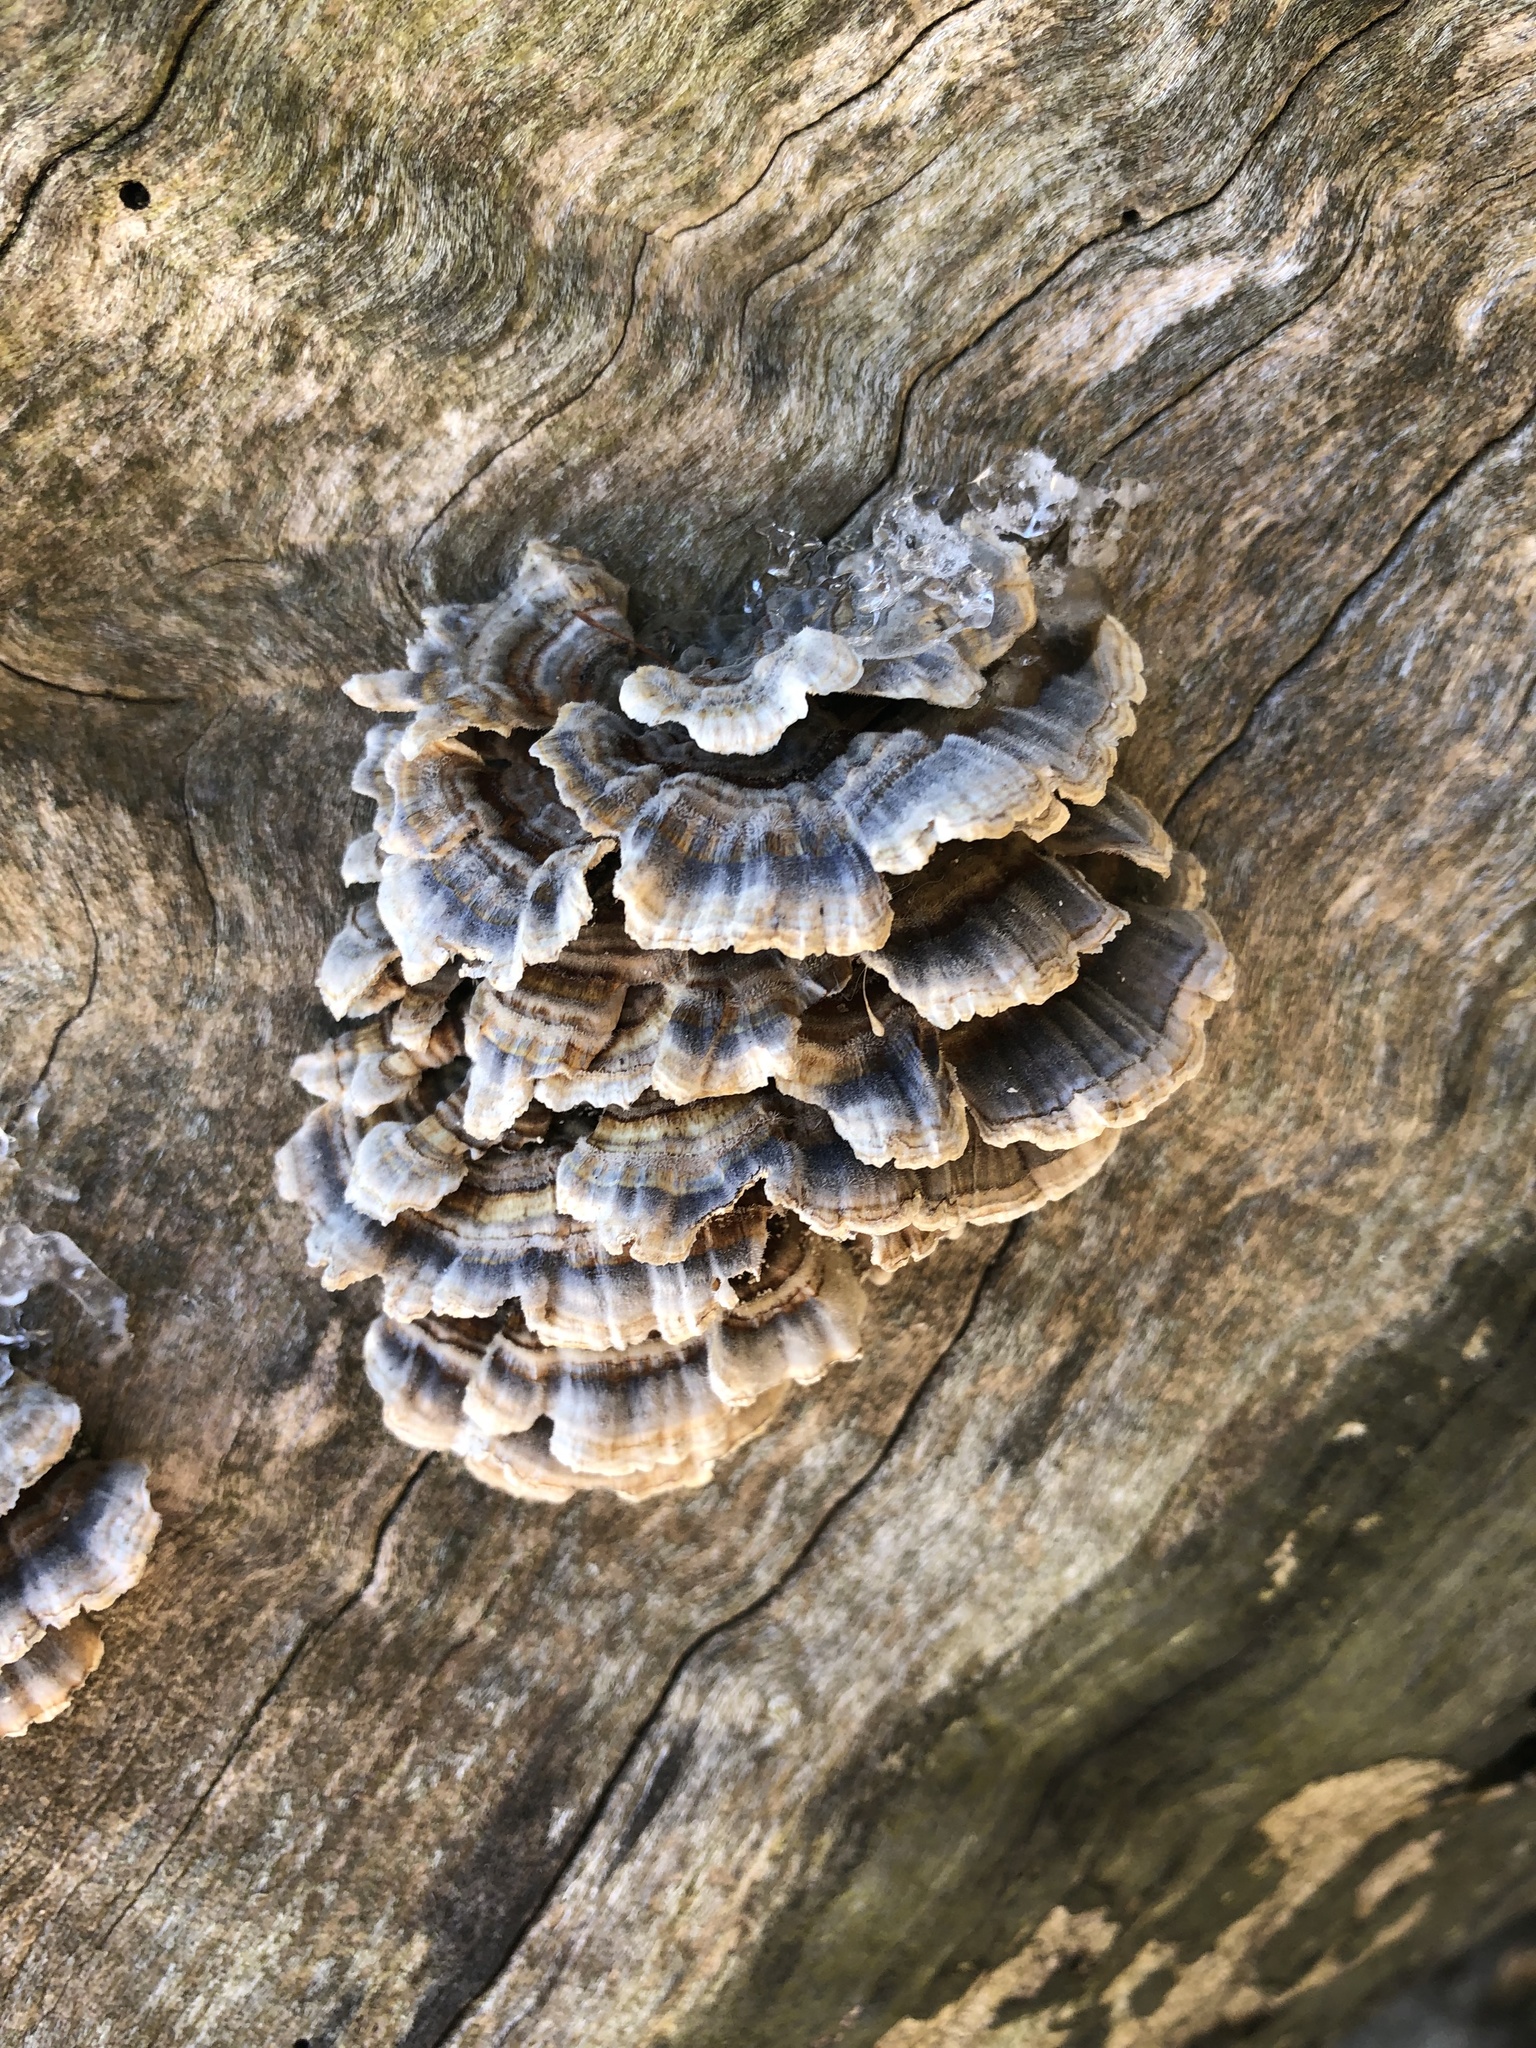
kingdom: Fungi
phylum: Basidiomycota
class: Agaricomycetes
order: Polyporales
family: Polyporaceae
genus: Trametes
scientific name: Trametes versicolor
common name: Turkeytail
